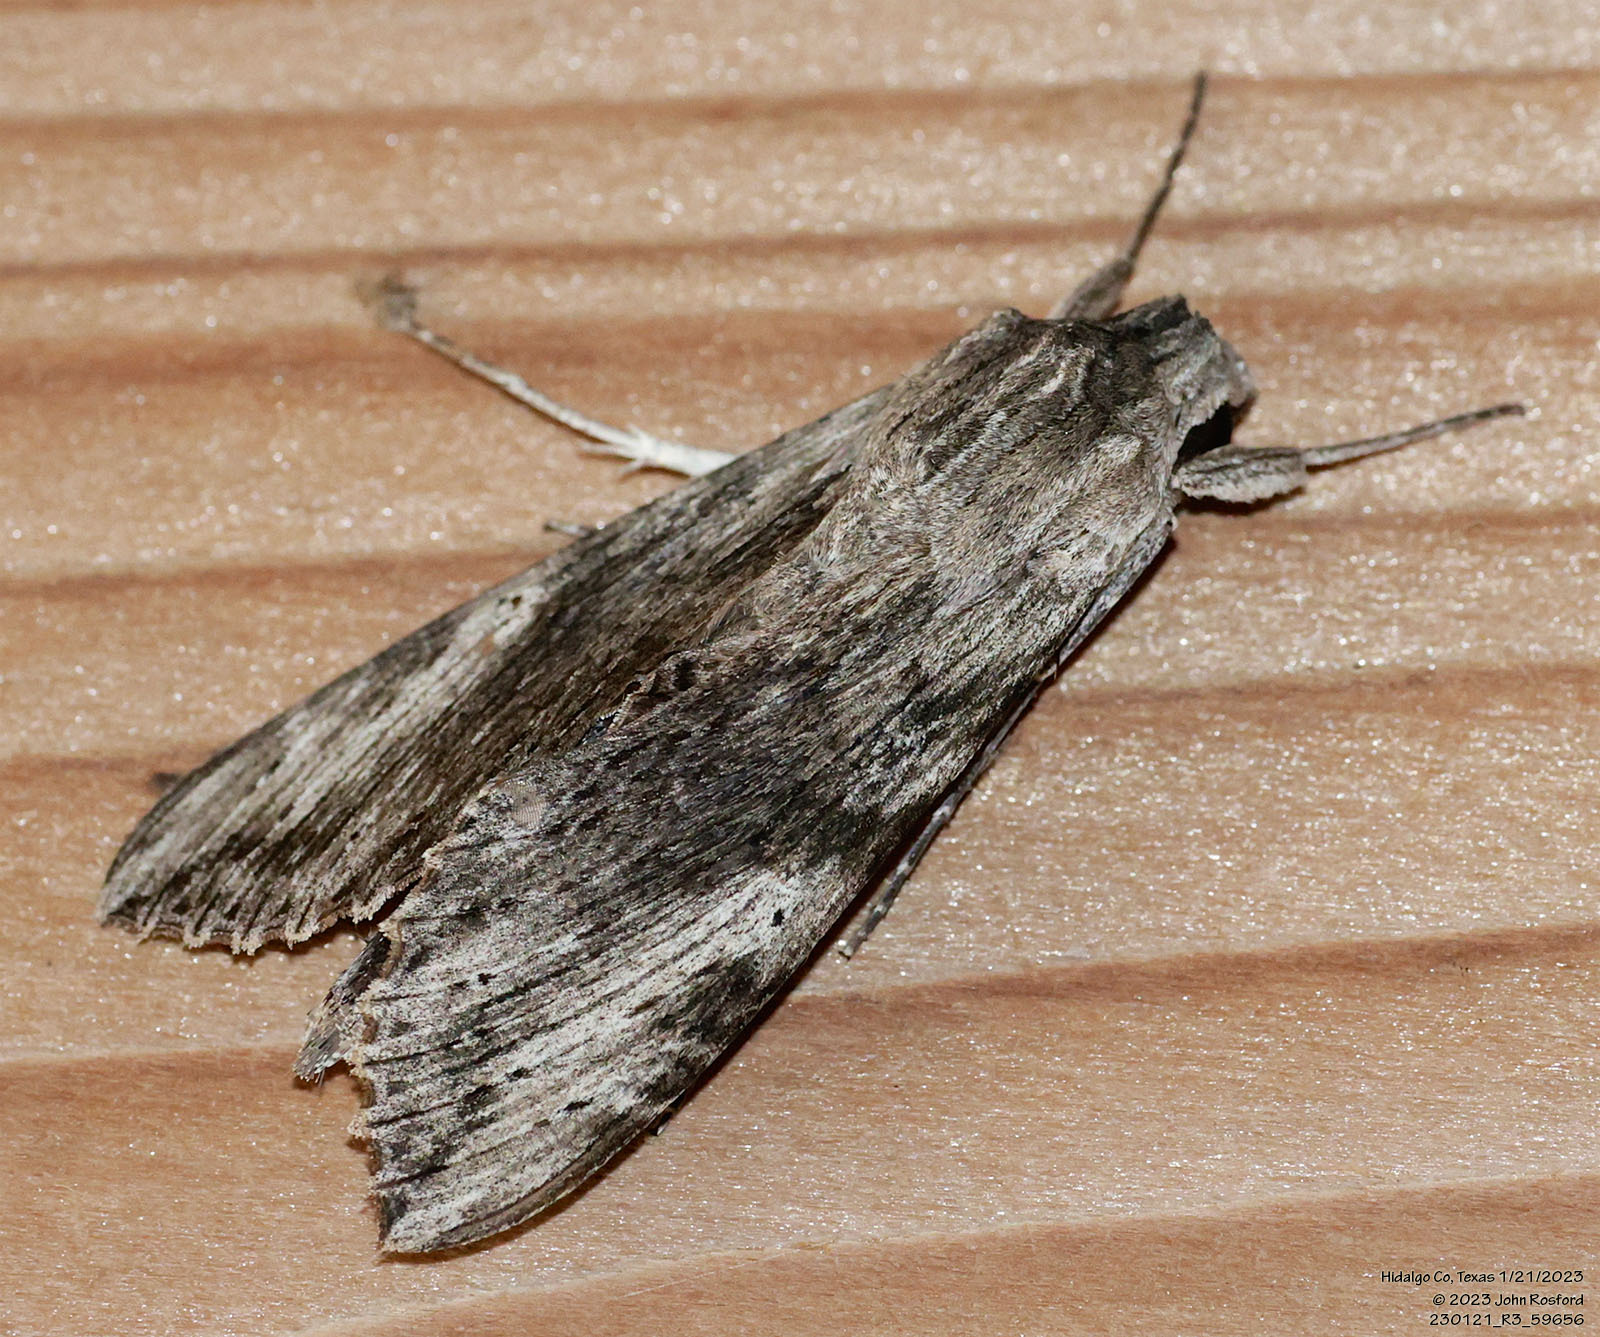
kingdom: Animalia
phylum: Arthropoda
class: Insecta
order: Lepidoptera
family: Sphingidae
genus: Erinnyis
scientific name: Erinnyis obscura
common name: Obscure sphinx
